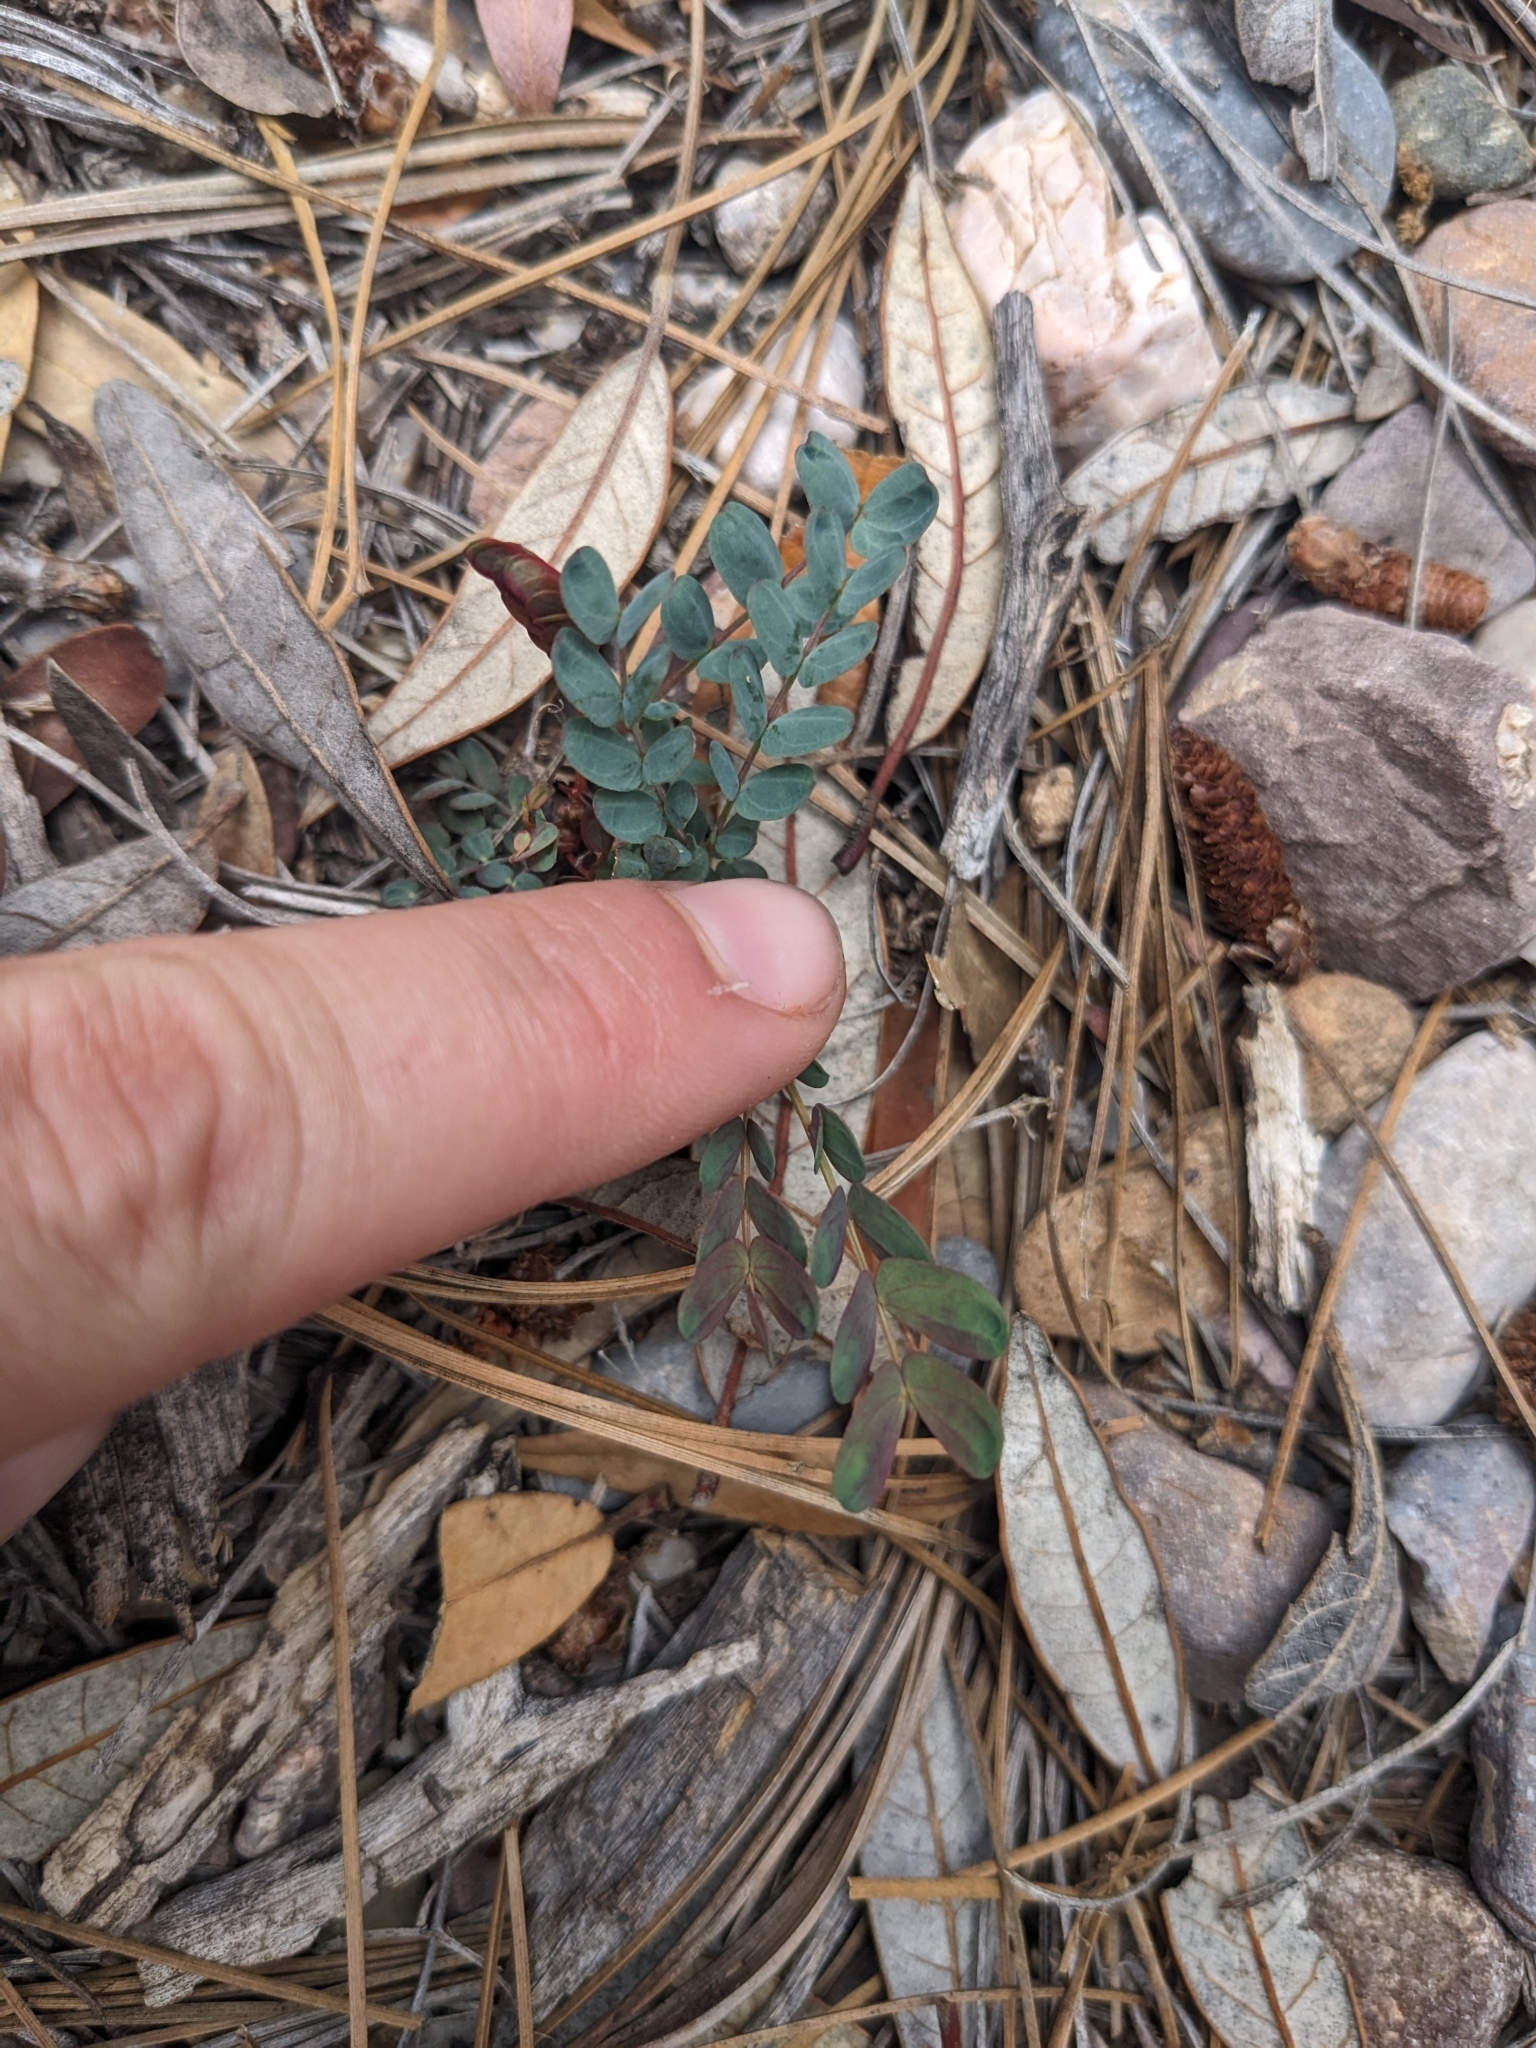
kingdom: Plantae
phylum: Tracheophyta
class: Magnoliopsida
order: Fabales
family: Fabaceae
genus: Calliandra
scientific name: Calliandra humilis
